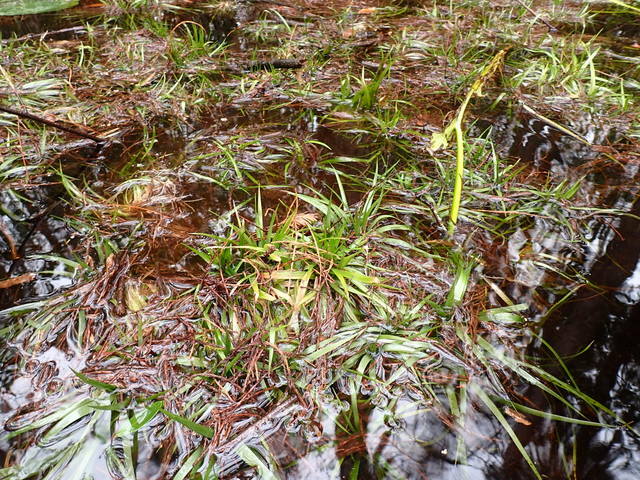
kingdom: Plantae
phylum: Tracheophyta
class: Liliopsida
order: Poales
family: Eriocaulaceae
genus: Eriocaulon
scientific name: Eriocaulon compressum
